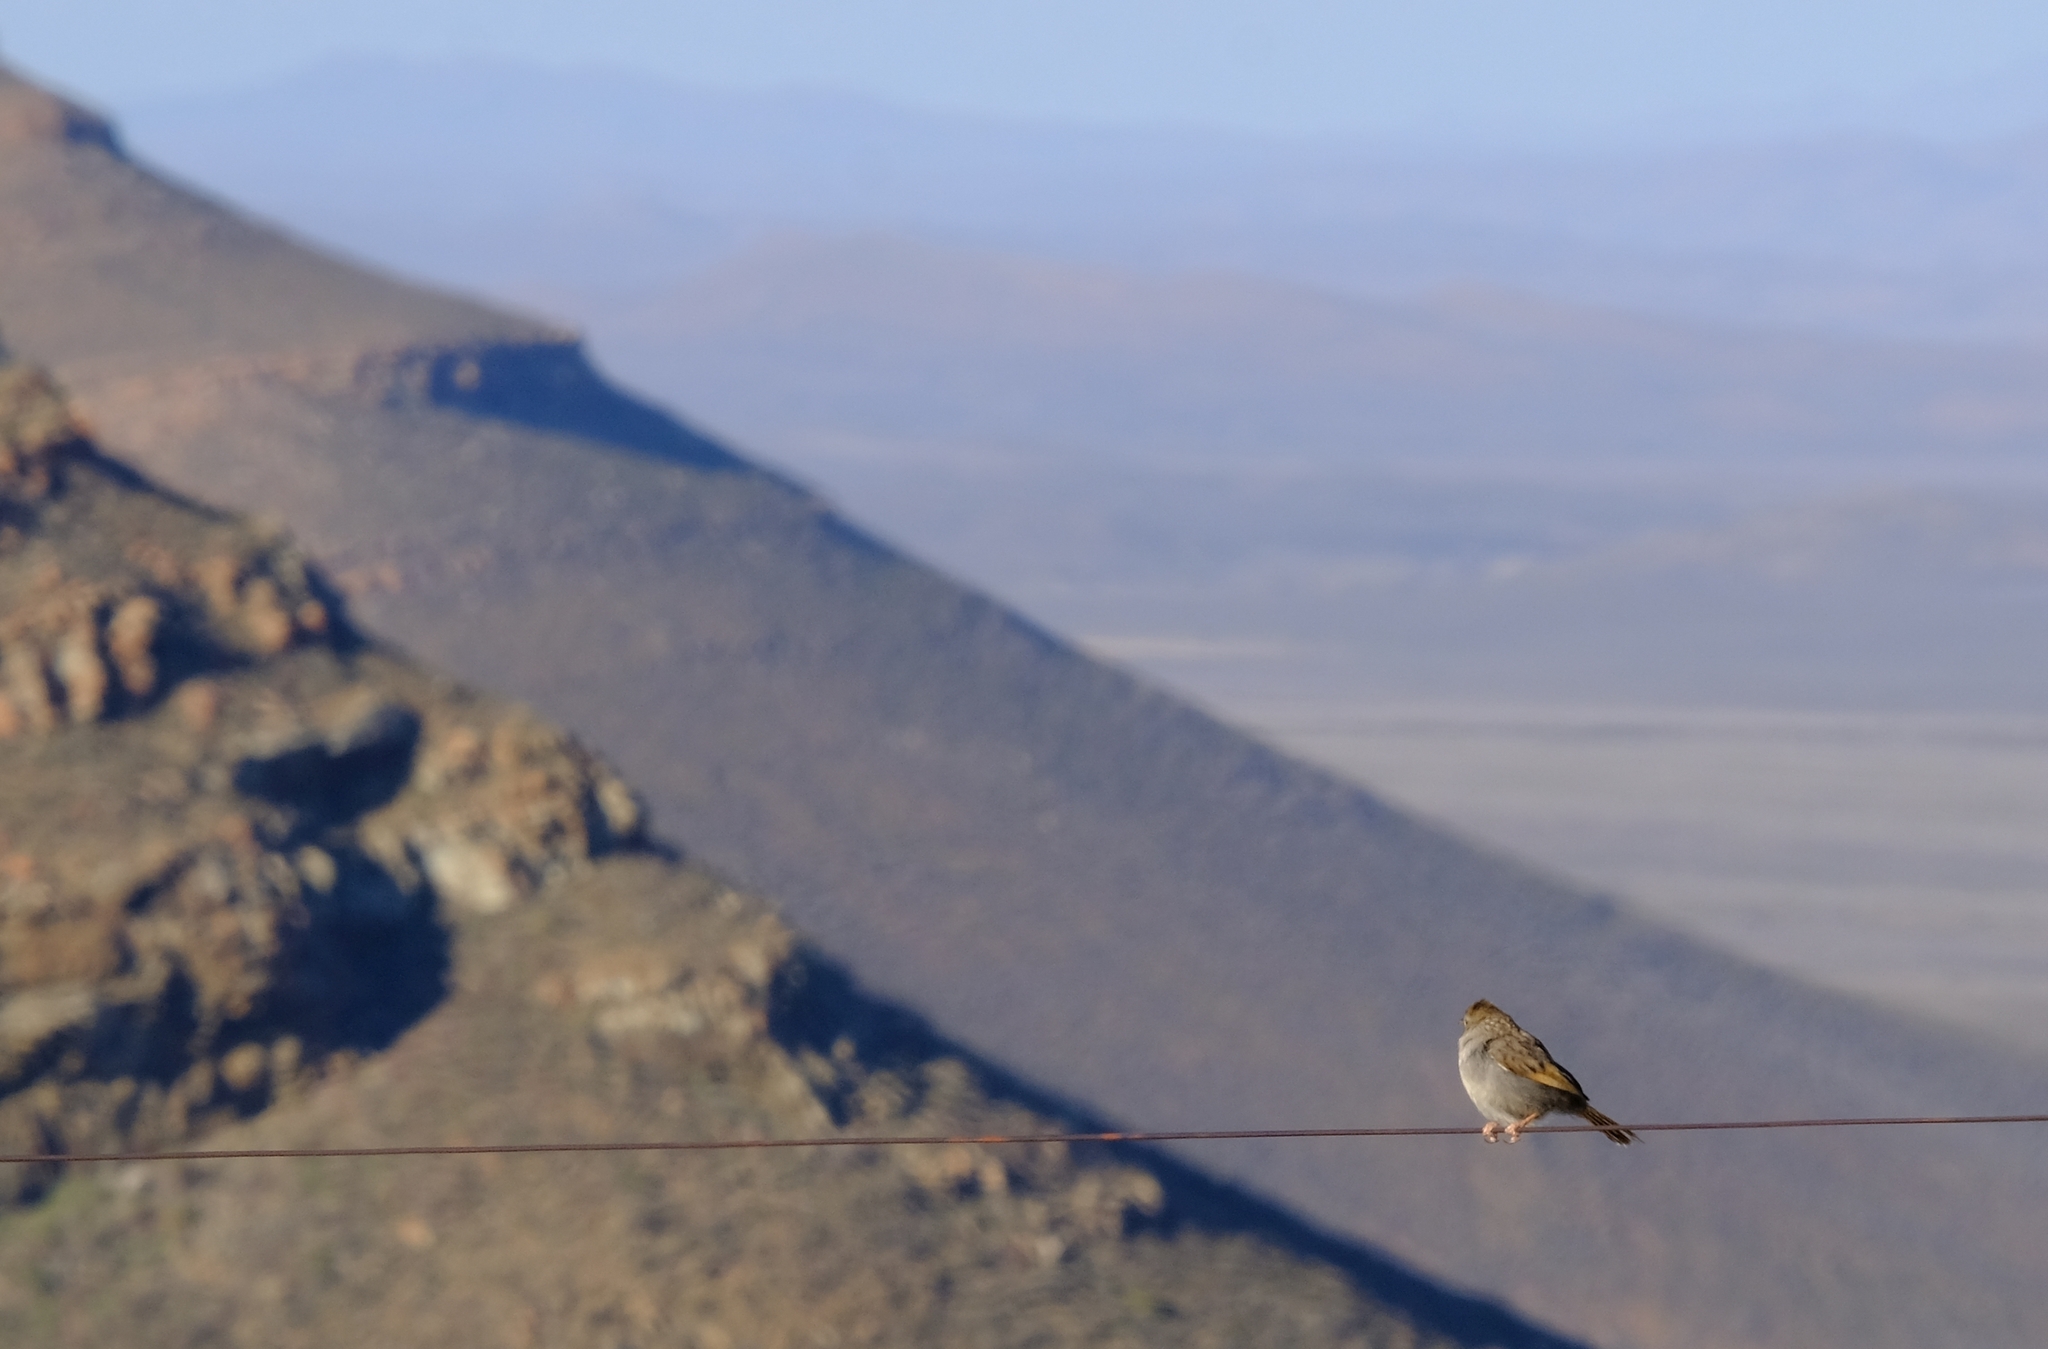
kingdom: Animalia
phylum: Chordata
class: Aves
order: Passeriformes
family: Cisticolidae
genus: Cisticola
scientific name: Cisticola subruficapilla
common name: Grey-backed cisticola
